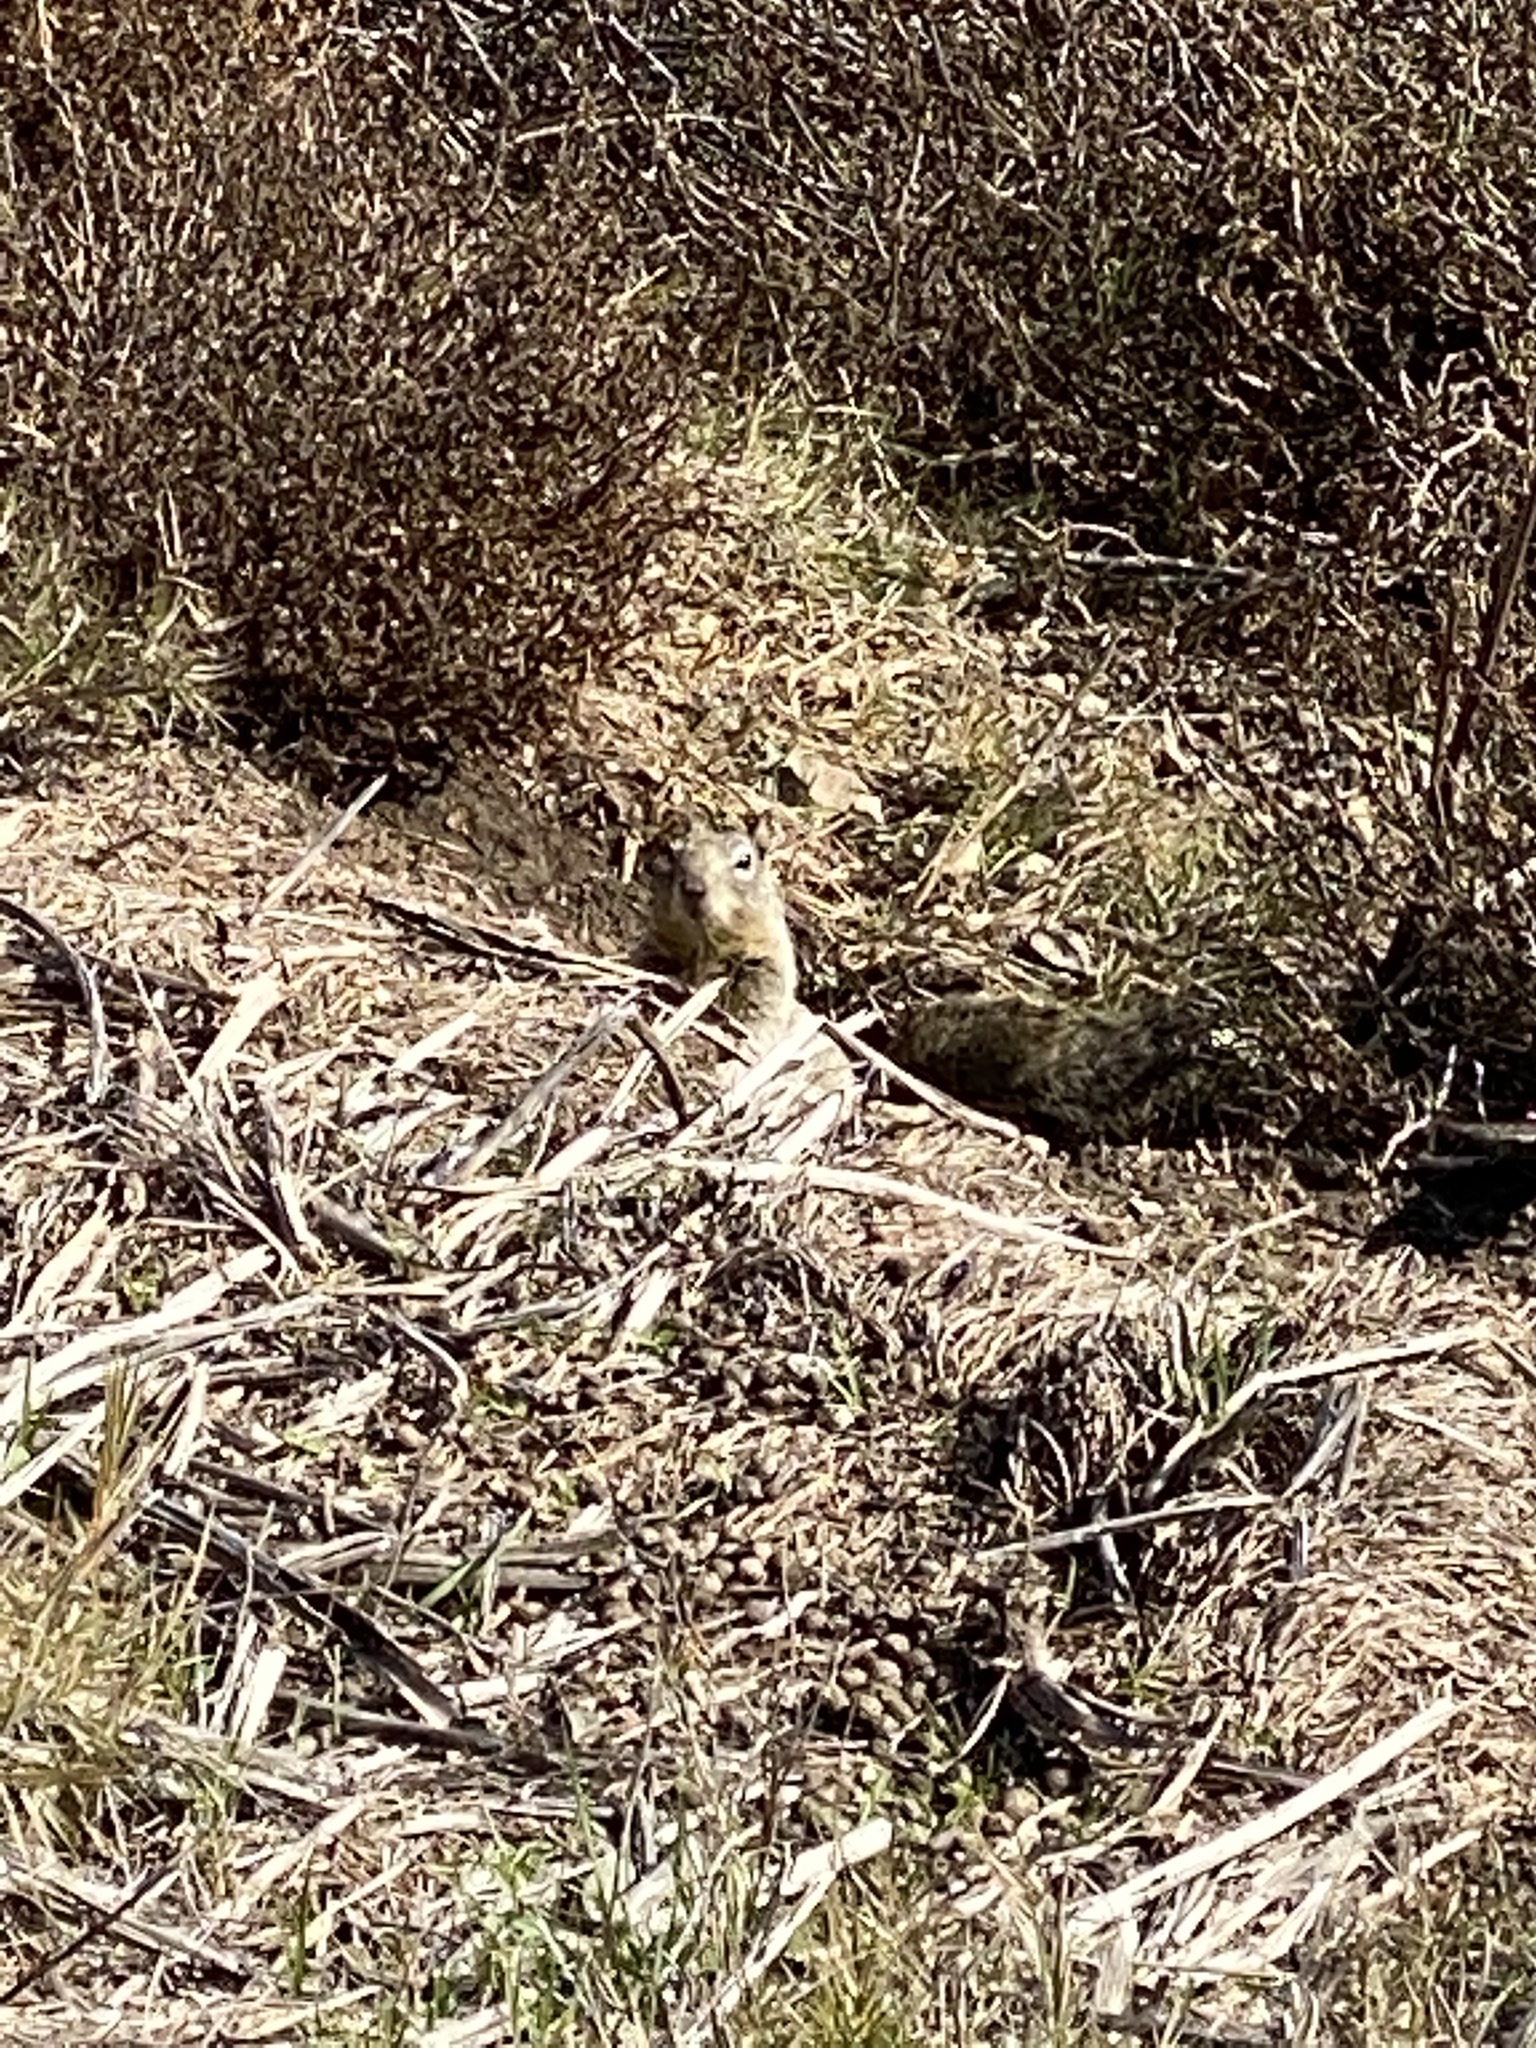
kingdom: Animalia
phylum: Chordata
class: Mammalia
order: Rodentia
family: Sciuridae
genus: Otospermophilus
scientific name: Otospermophilus beecheyi
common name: California ground squirrel
